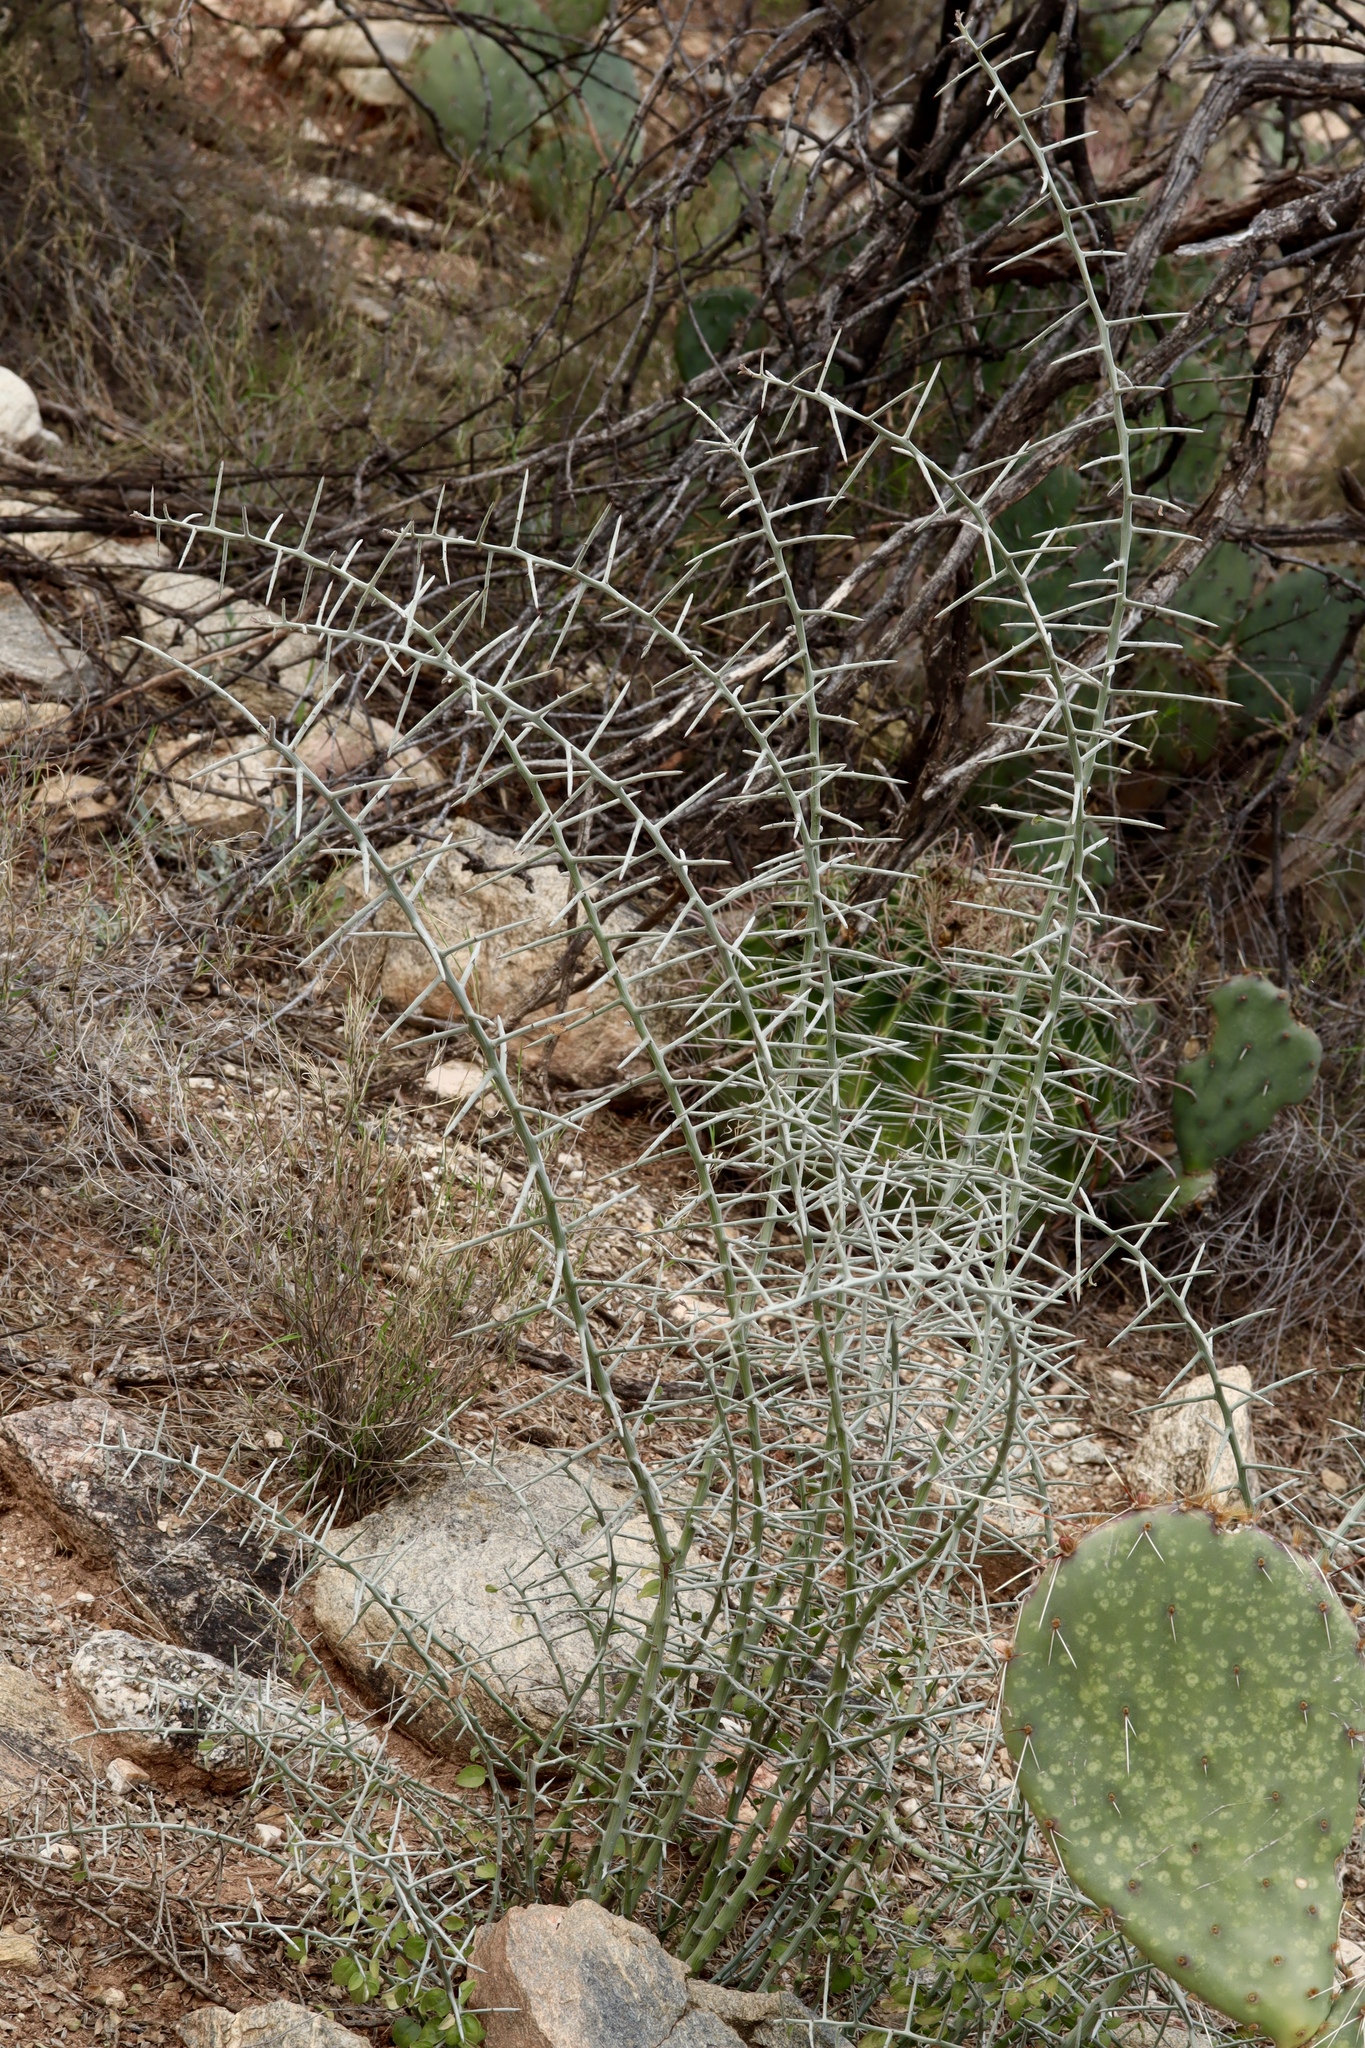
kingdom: Plantae
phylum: Tracheophyta
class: Magnoliopsida
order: Rosales
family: Rhamnaceae
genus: Sarcomphalus
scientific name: Sarcomphalus obtusifolius
